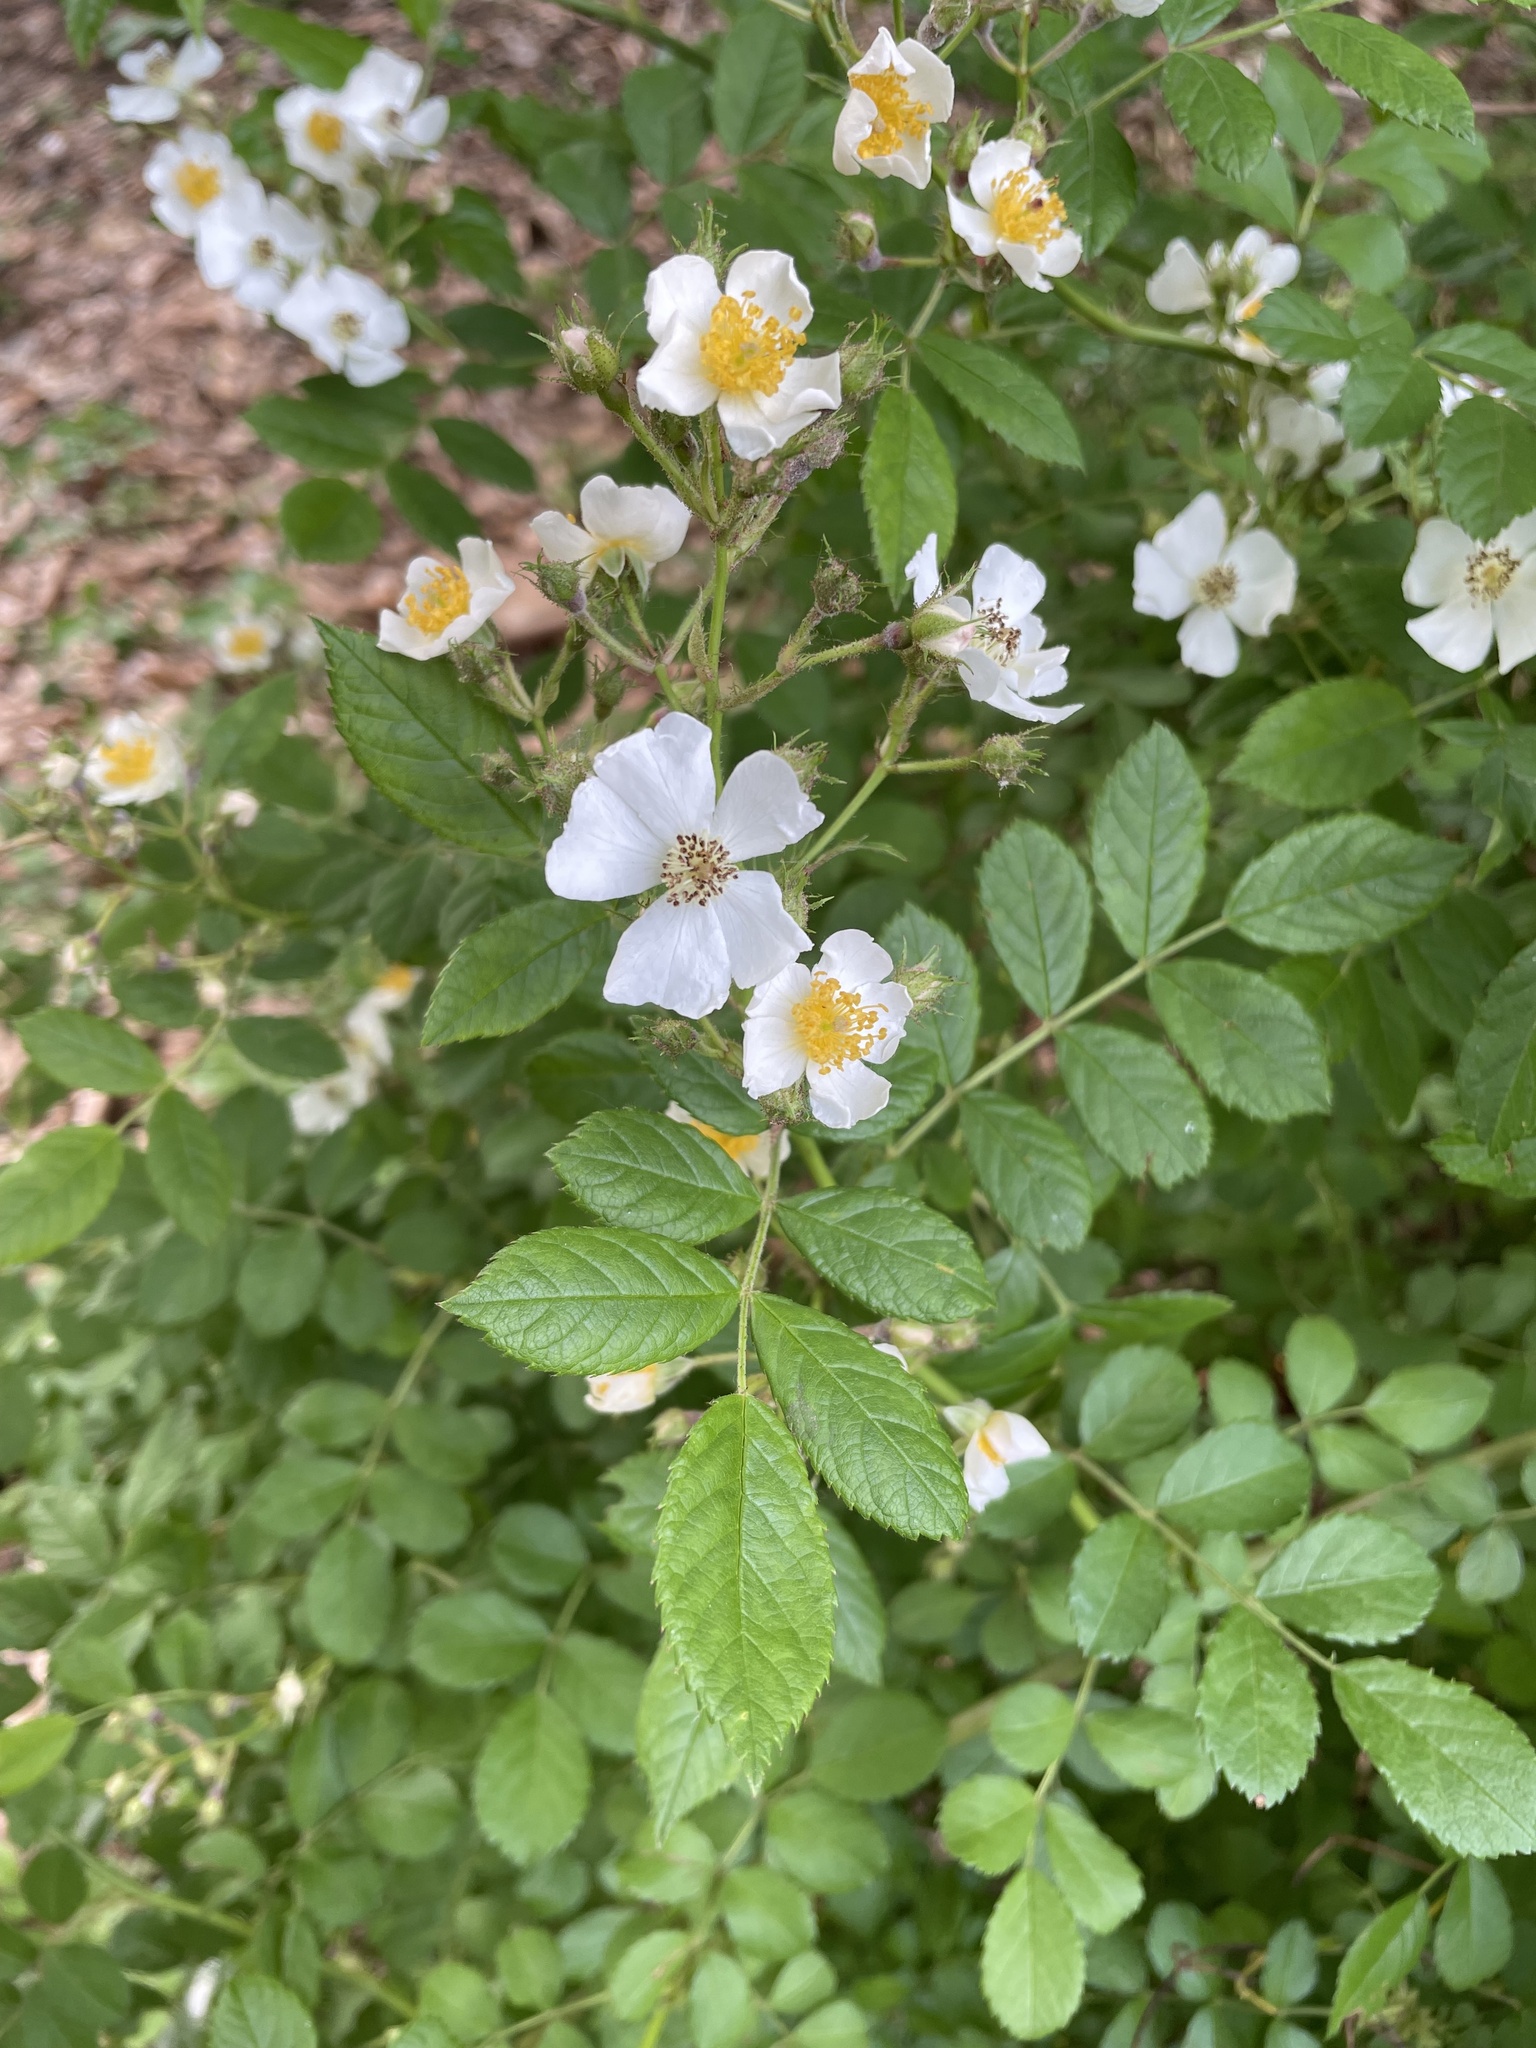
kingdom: Plantae
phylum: Tracheophyta
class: Magnoliopsida
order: Rosales
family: Rosaceae
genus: Rosa
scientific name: Rosa multiflora
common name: Multiflora rose
